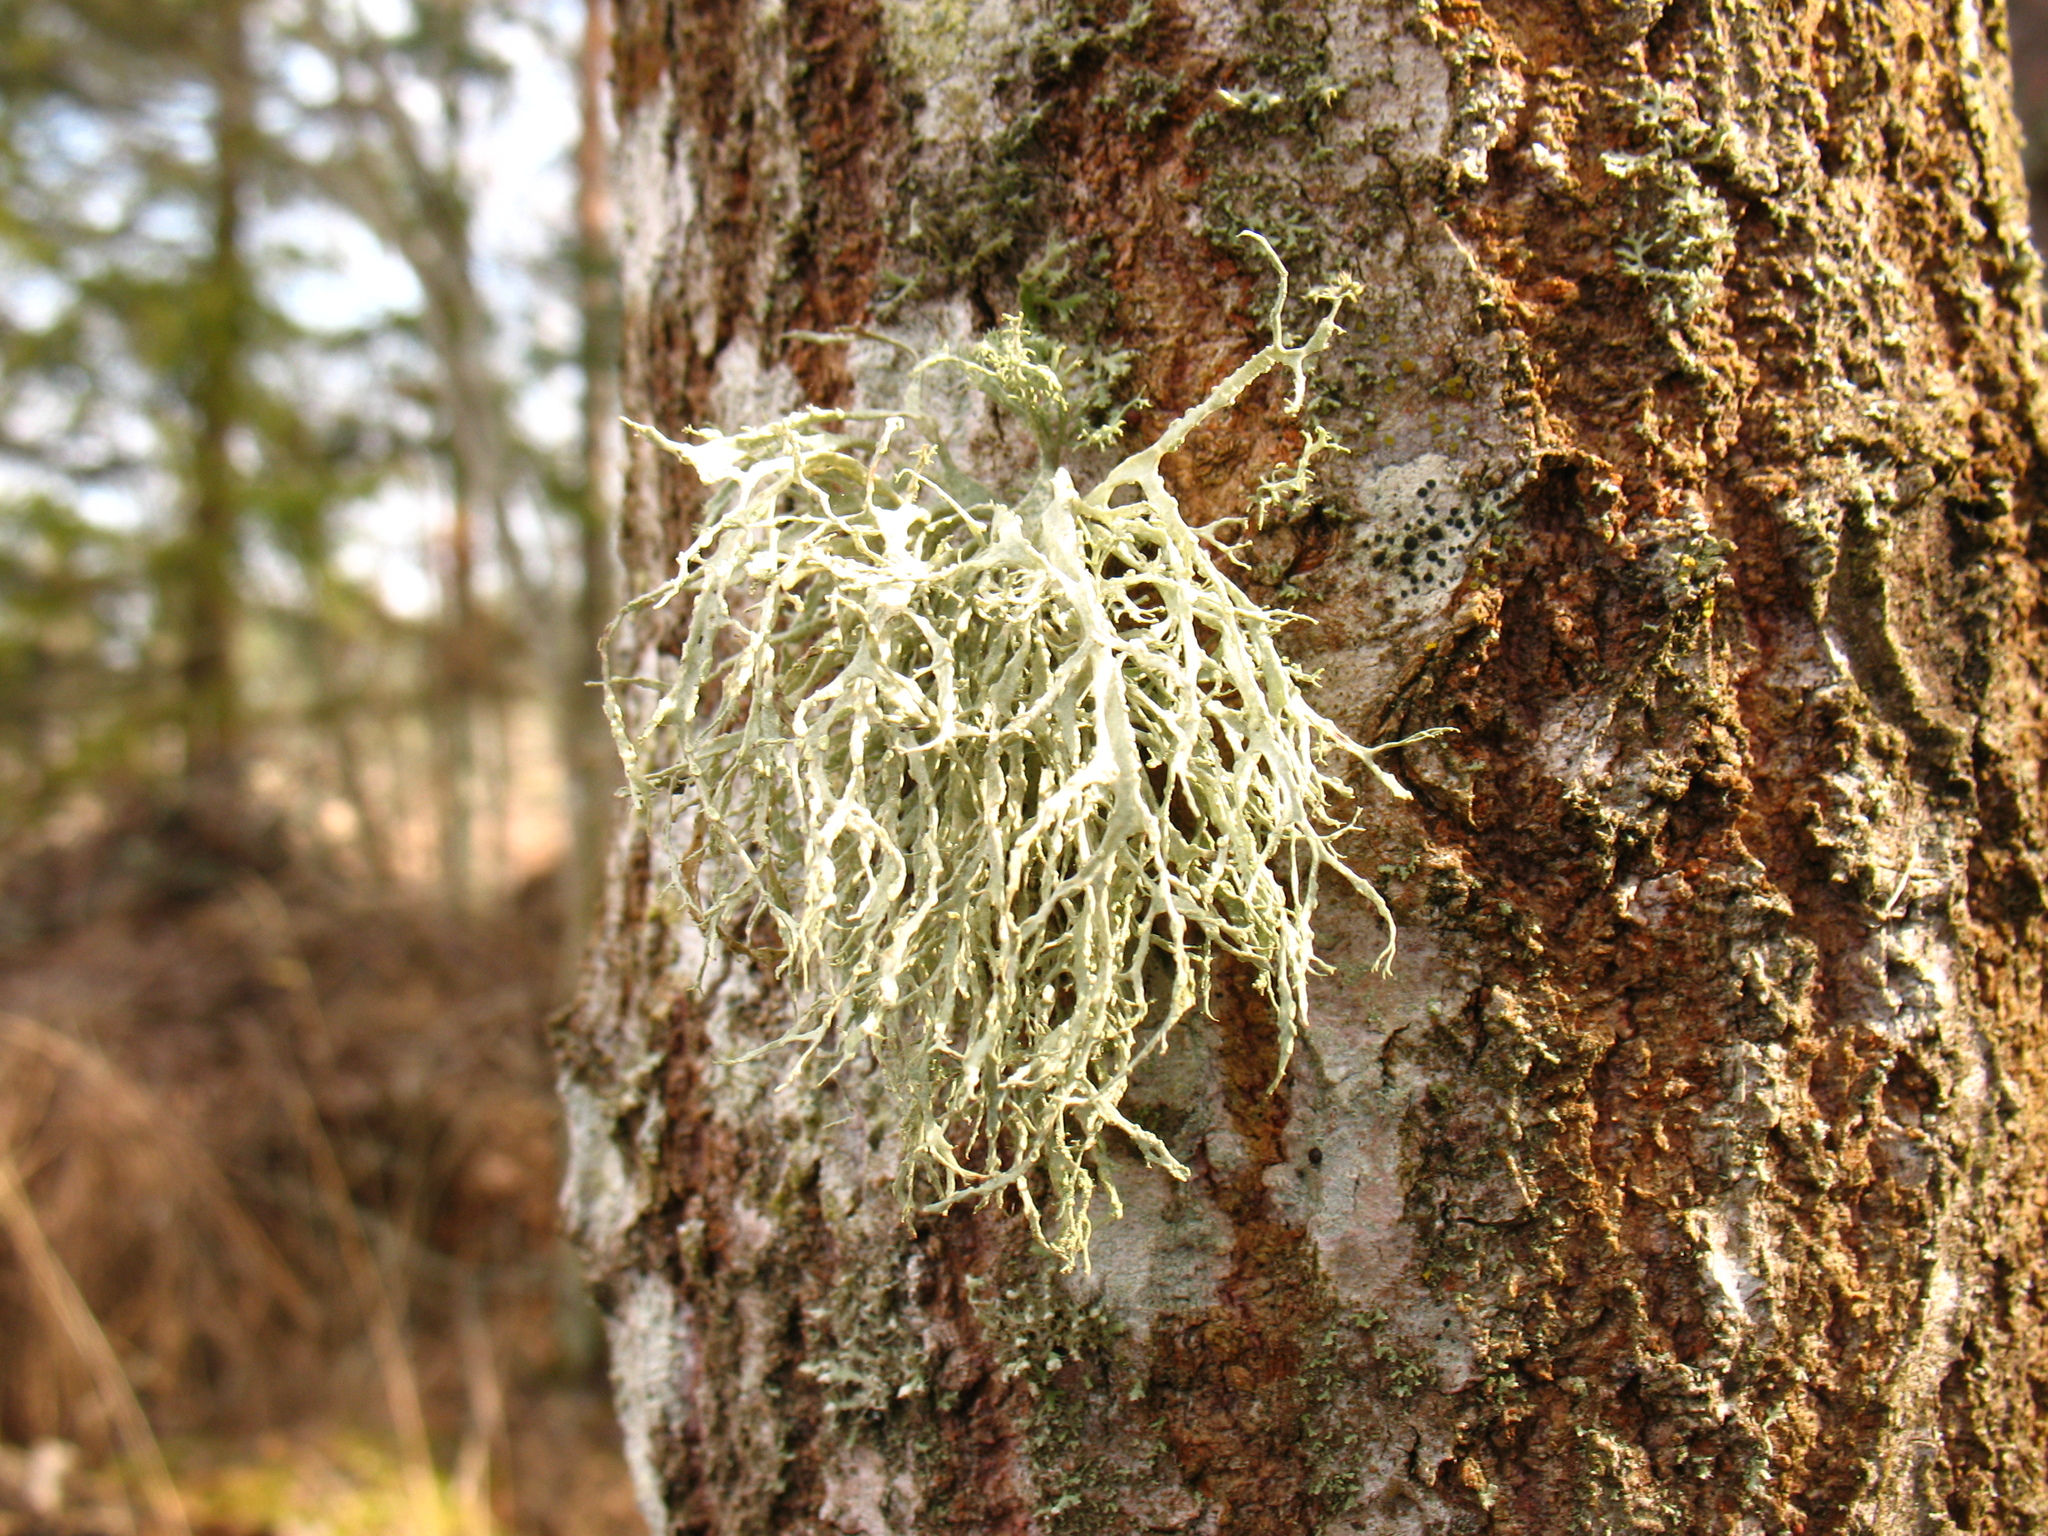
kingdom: Fungi
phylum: Ascomycota
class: Lecanoromycetes
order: Lecanorales
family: Ramalinaceae
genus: Ramalina
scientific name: Ramalina farinacea
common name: Farinose cartilage lichen
